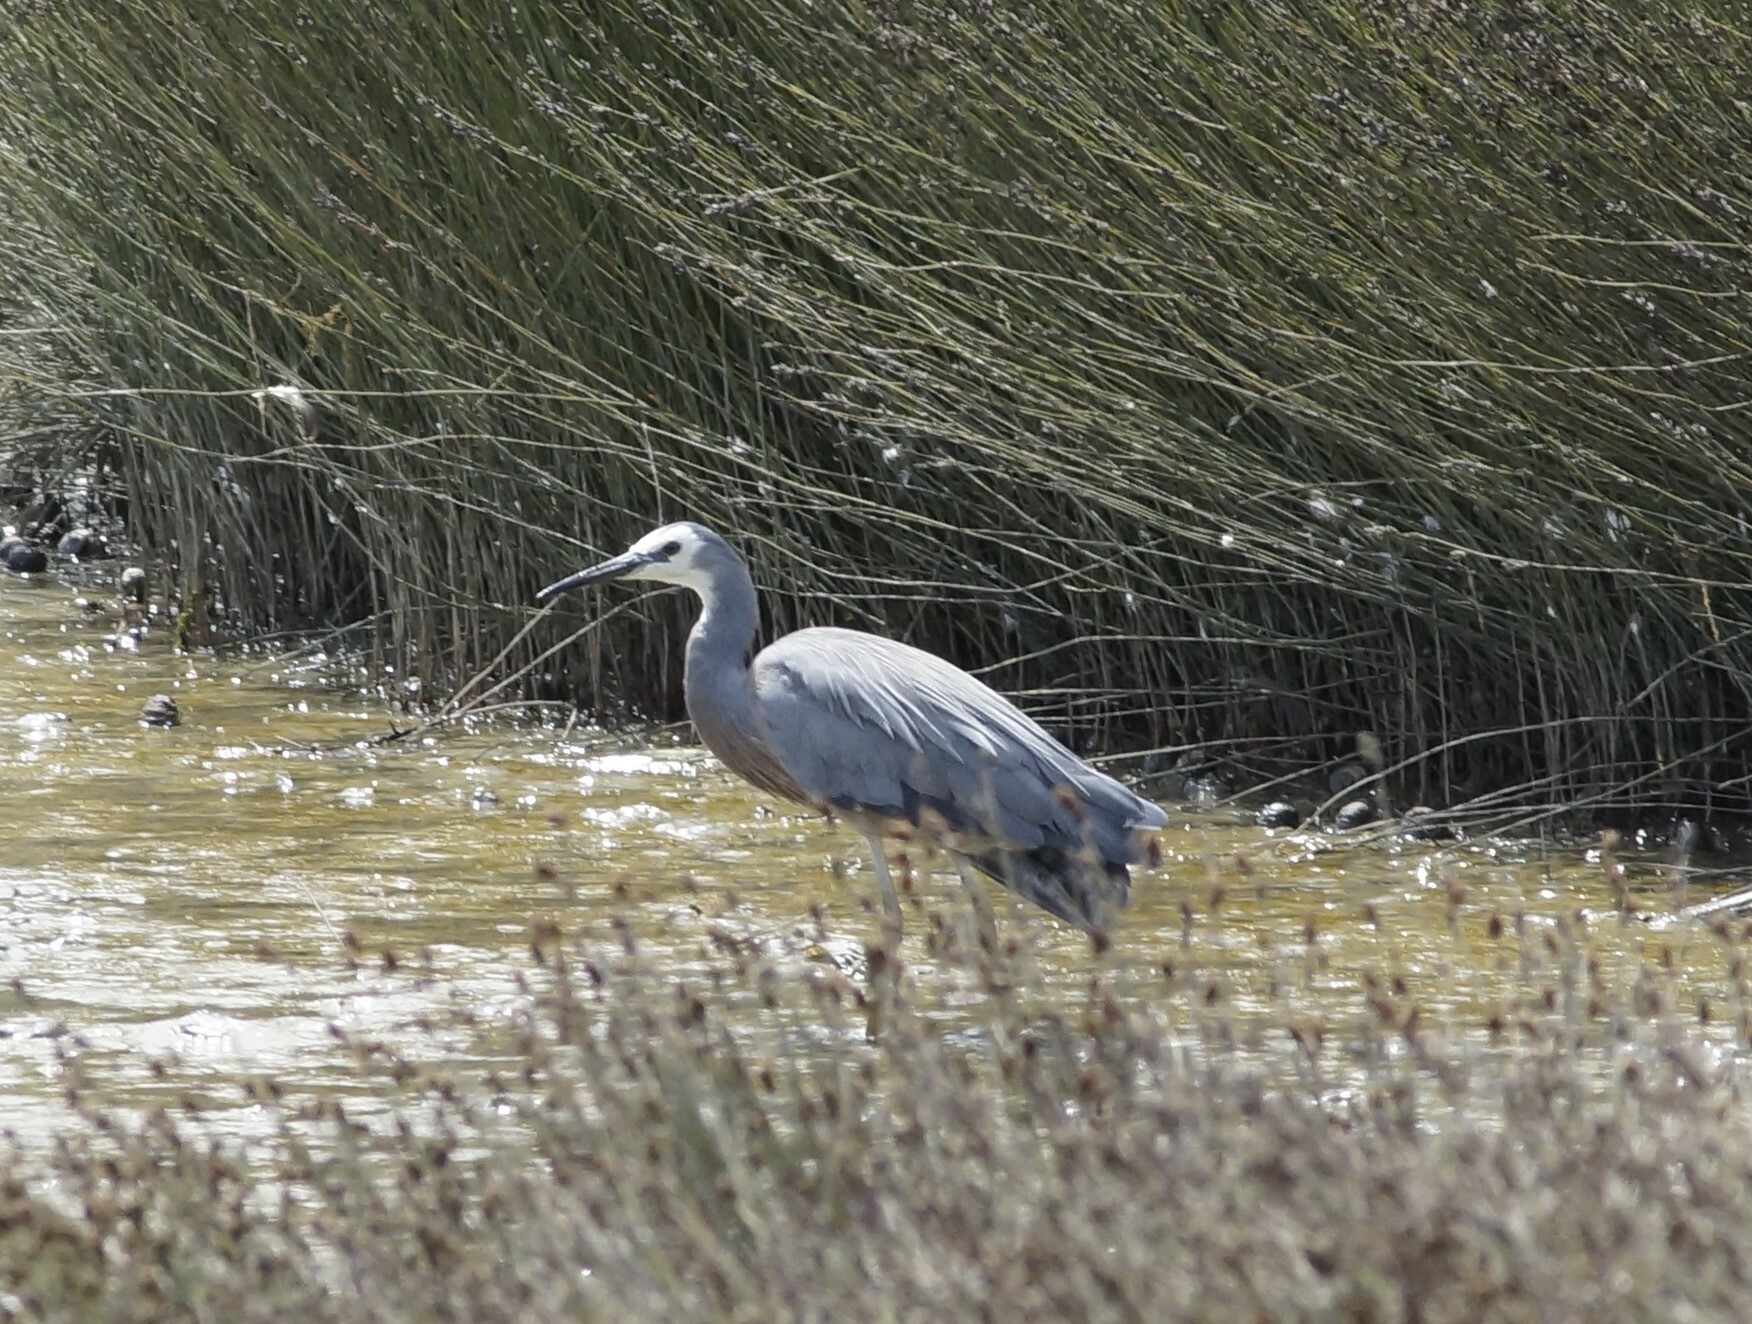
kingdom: Animalia
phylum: Chordata
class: Aves
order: Pelecaniformes
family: Ardeidae
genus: Egretta
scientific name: Egretta novaehollandiae
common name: White-faced heron
